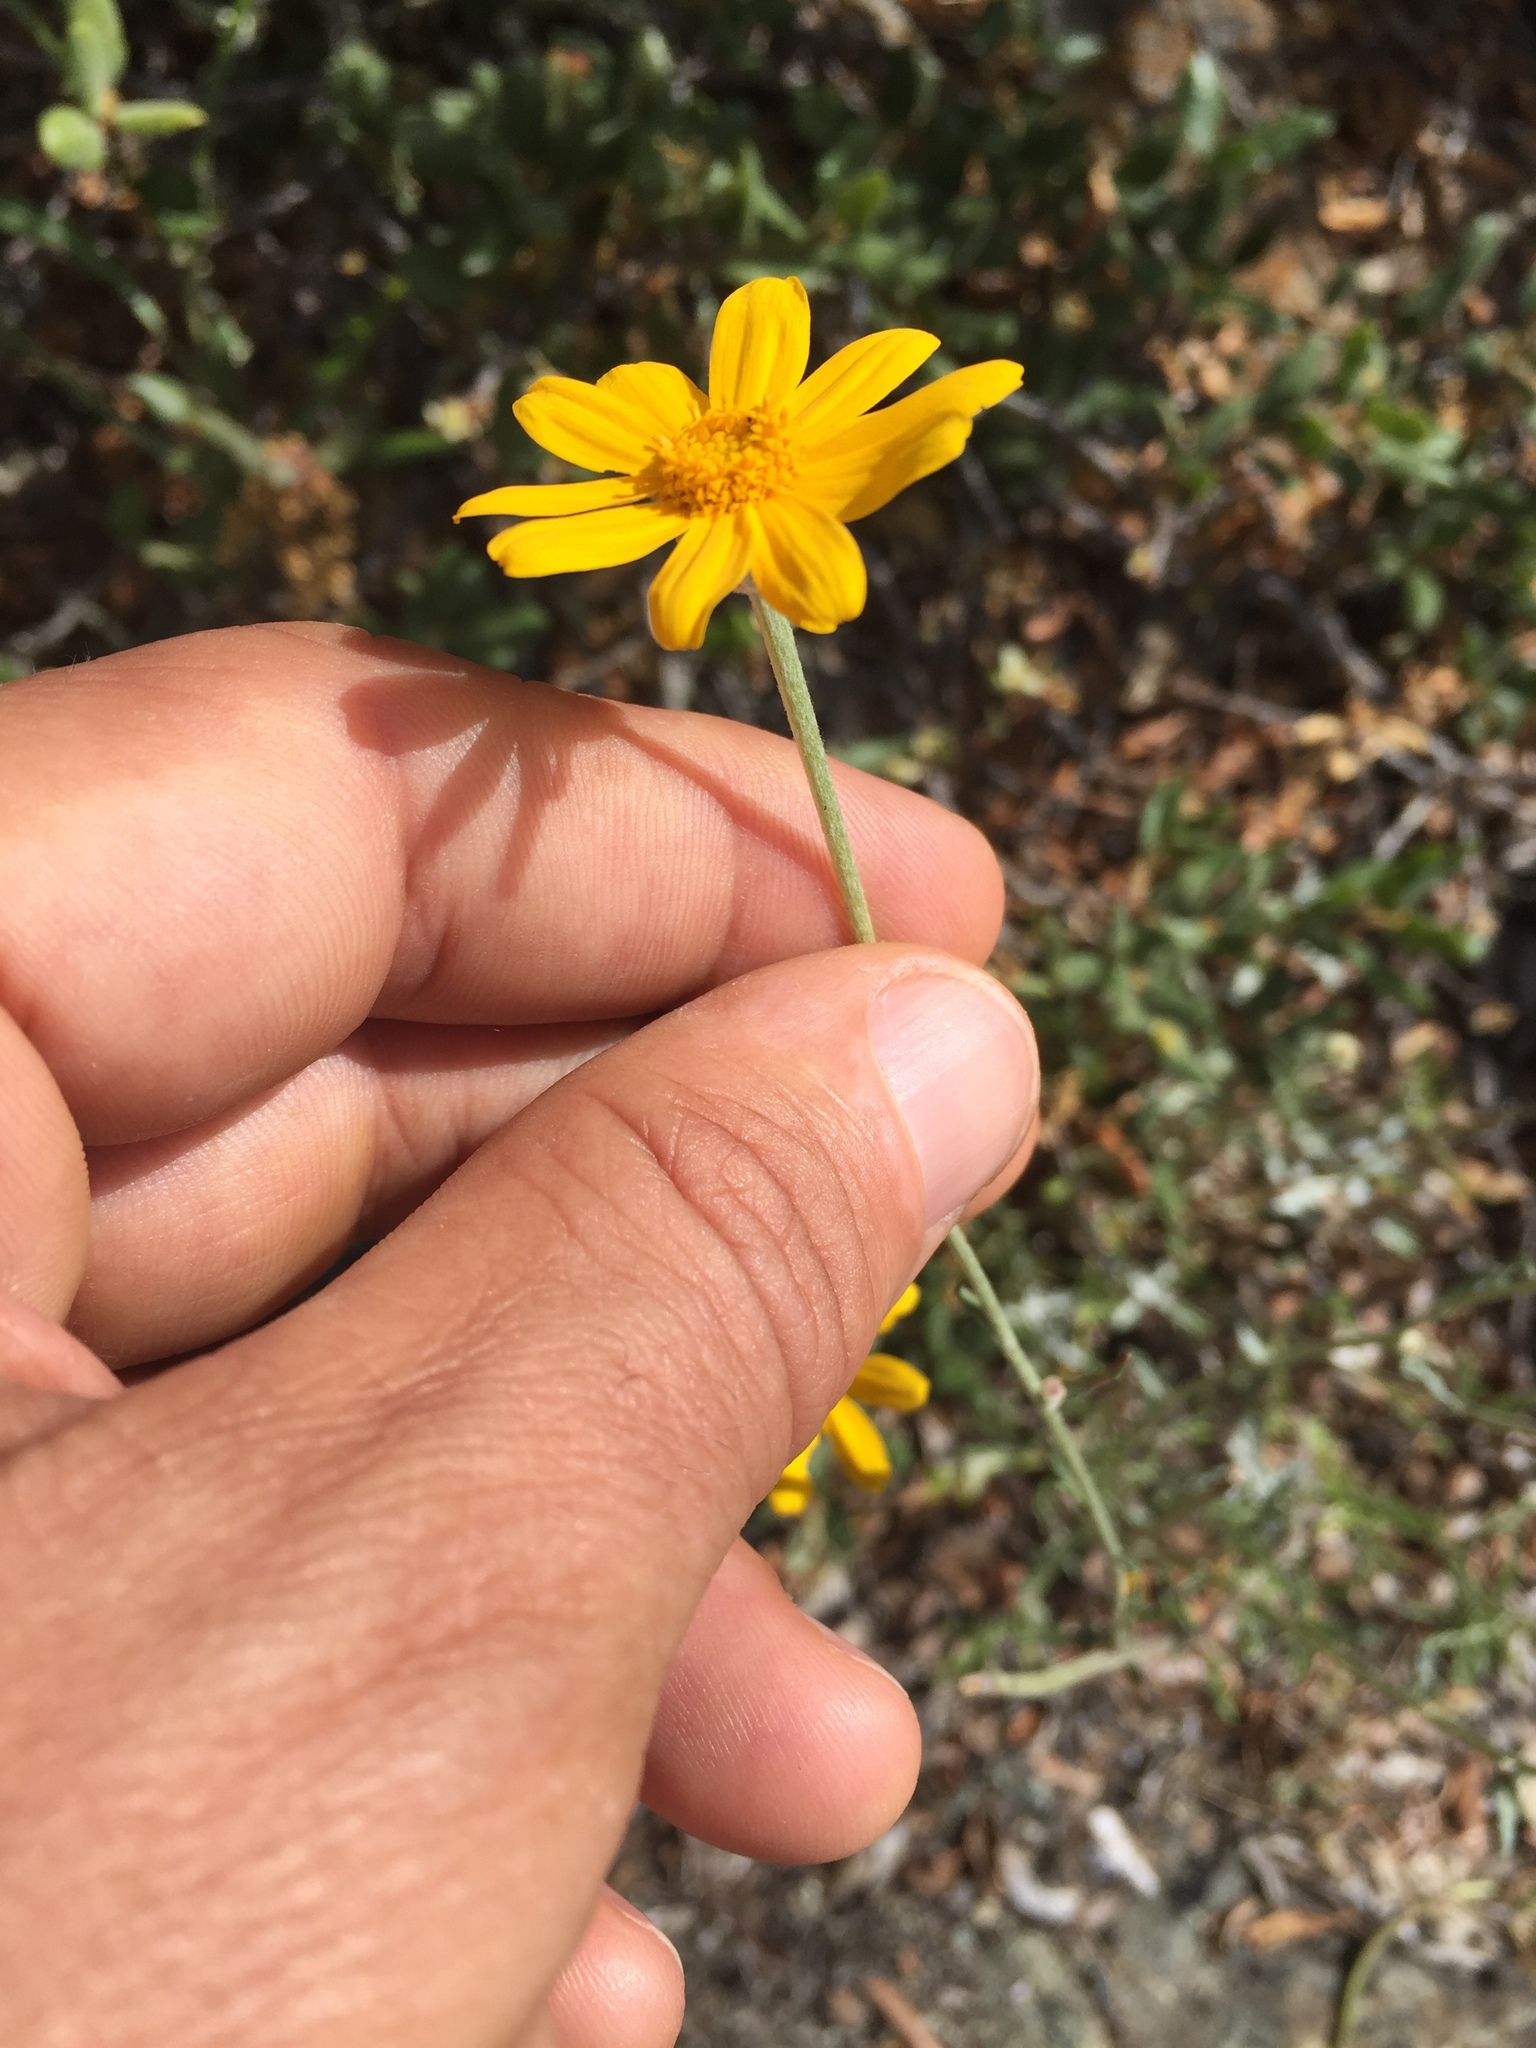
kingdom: Plantae
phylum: Tracheophyta
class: Magnoliopsida
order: Asterales
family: Asteraceae
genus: Eriophyllum
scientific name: Eriophyllum lanatum
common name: Common woolly-sunflower
